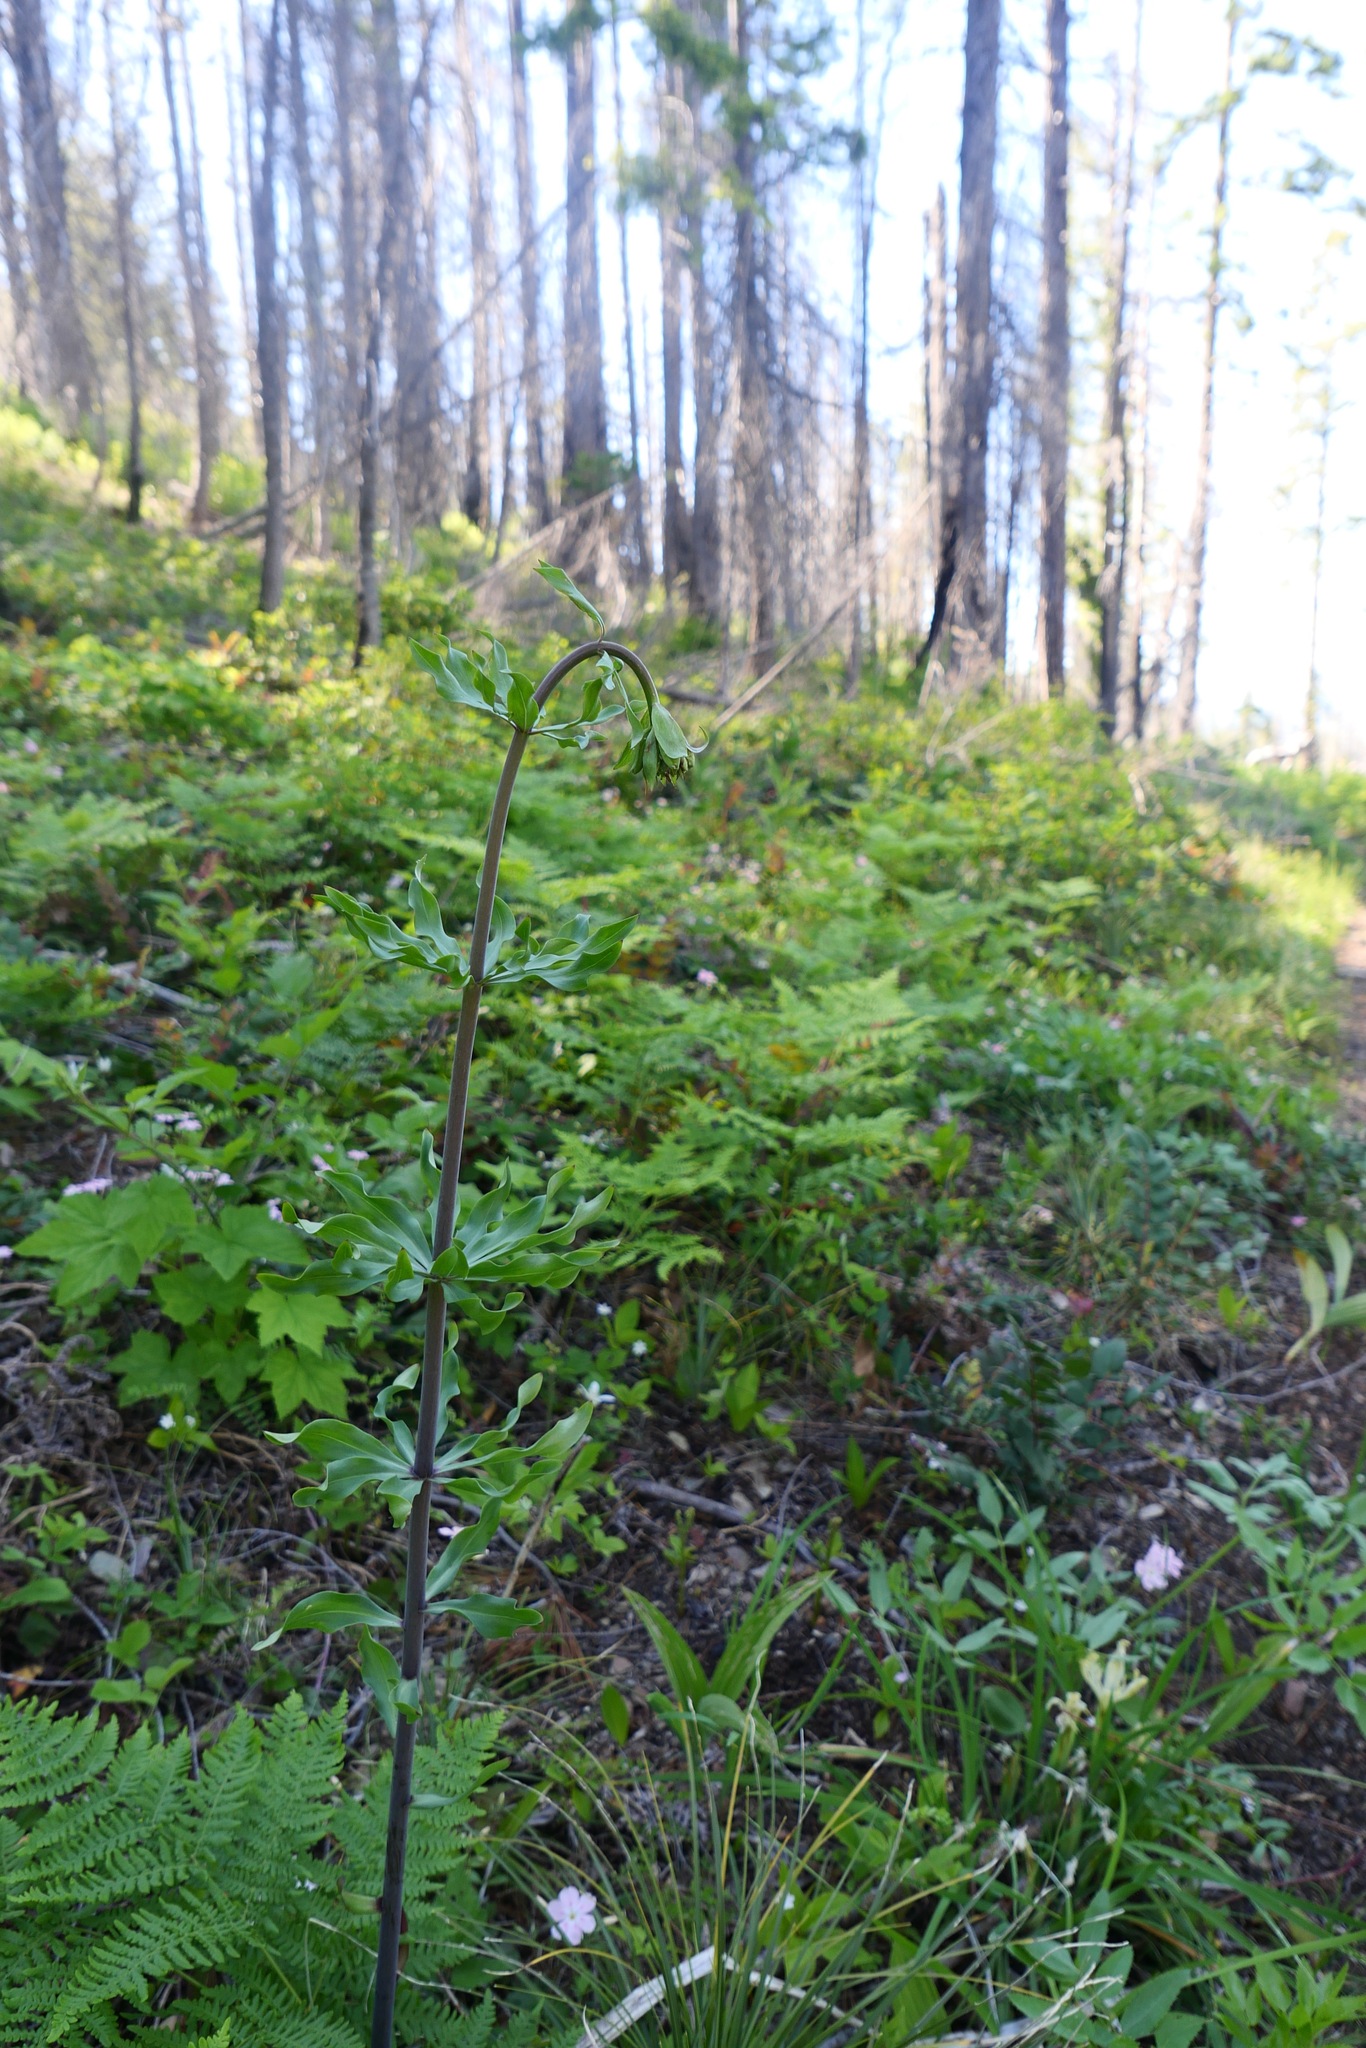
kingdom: Plantae
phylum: Tracheophyta
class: Liliopsida
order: Liliales
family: Liliaceae
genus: Lilium
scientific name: Lilium washingtonianum
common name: Washington lily
